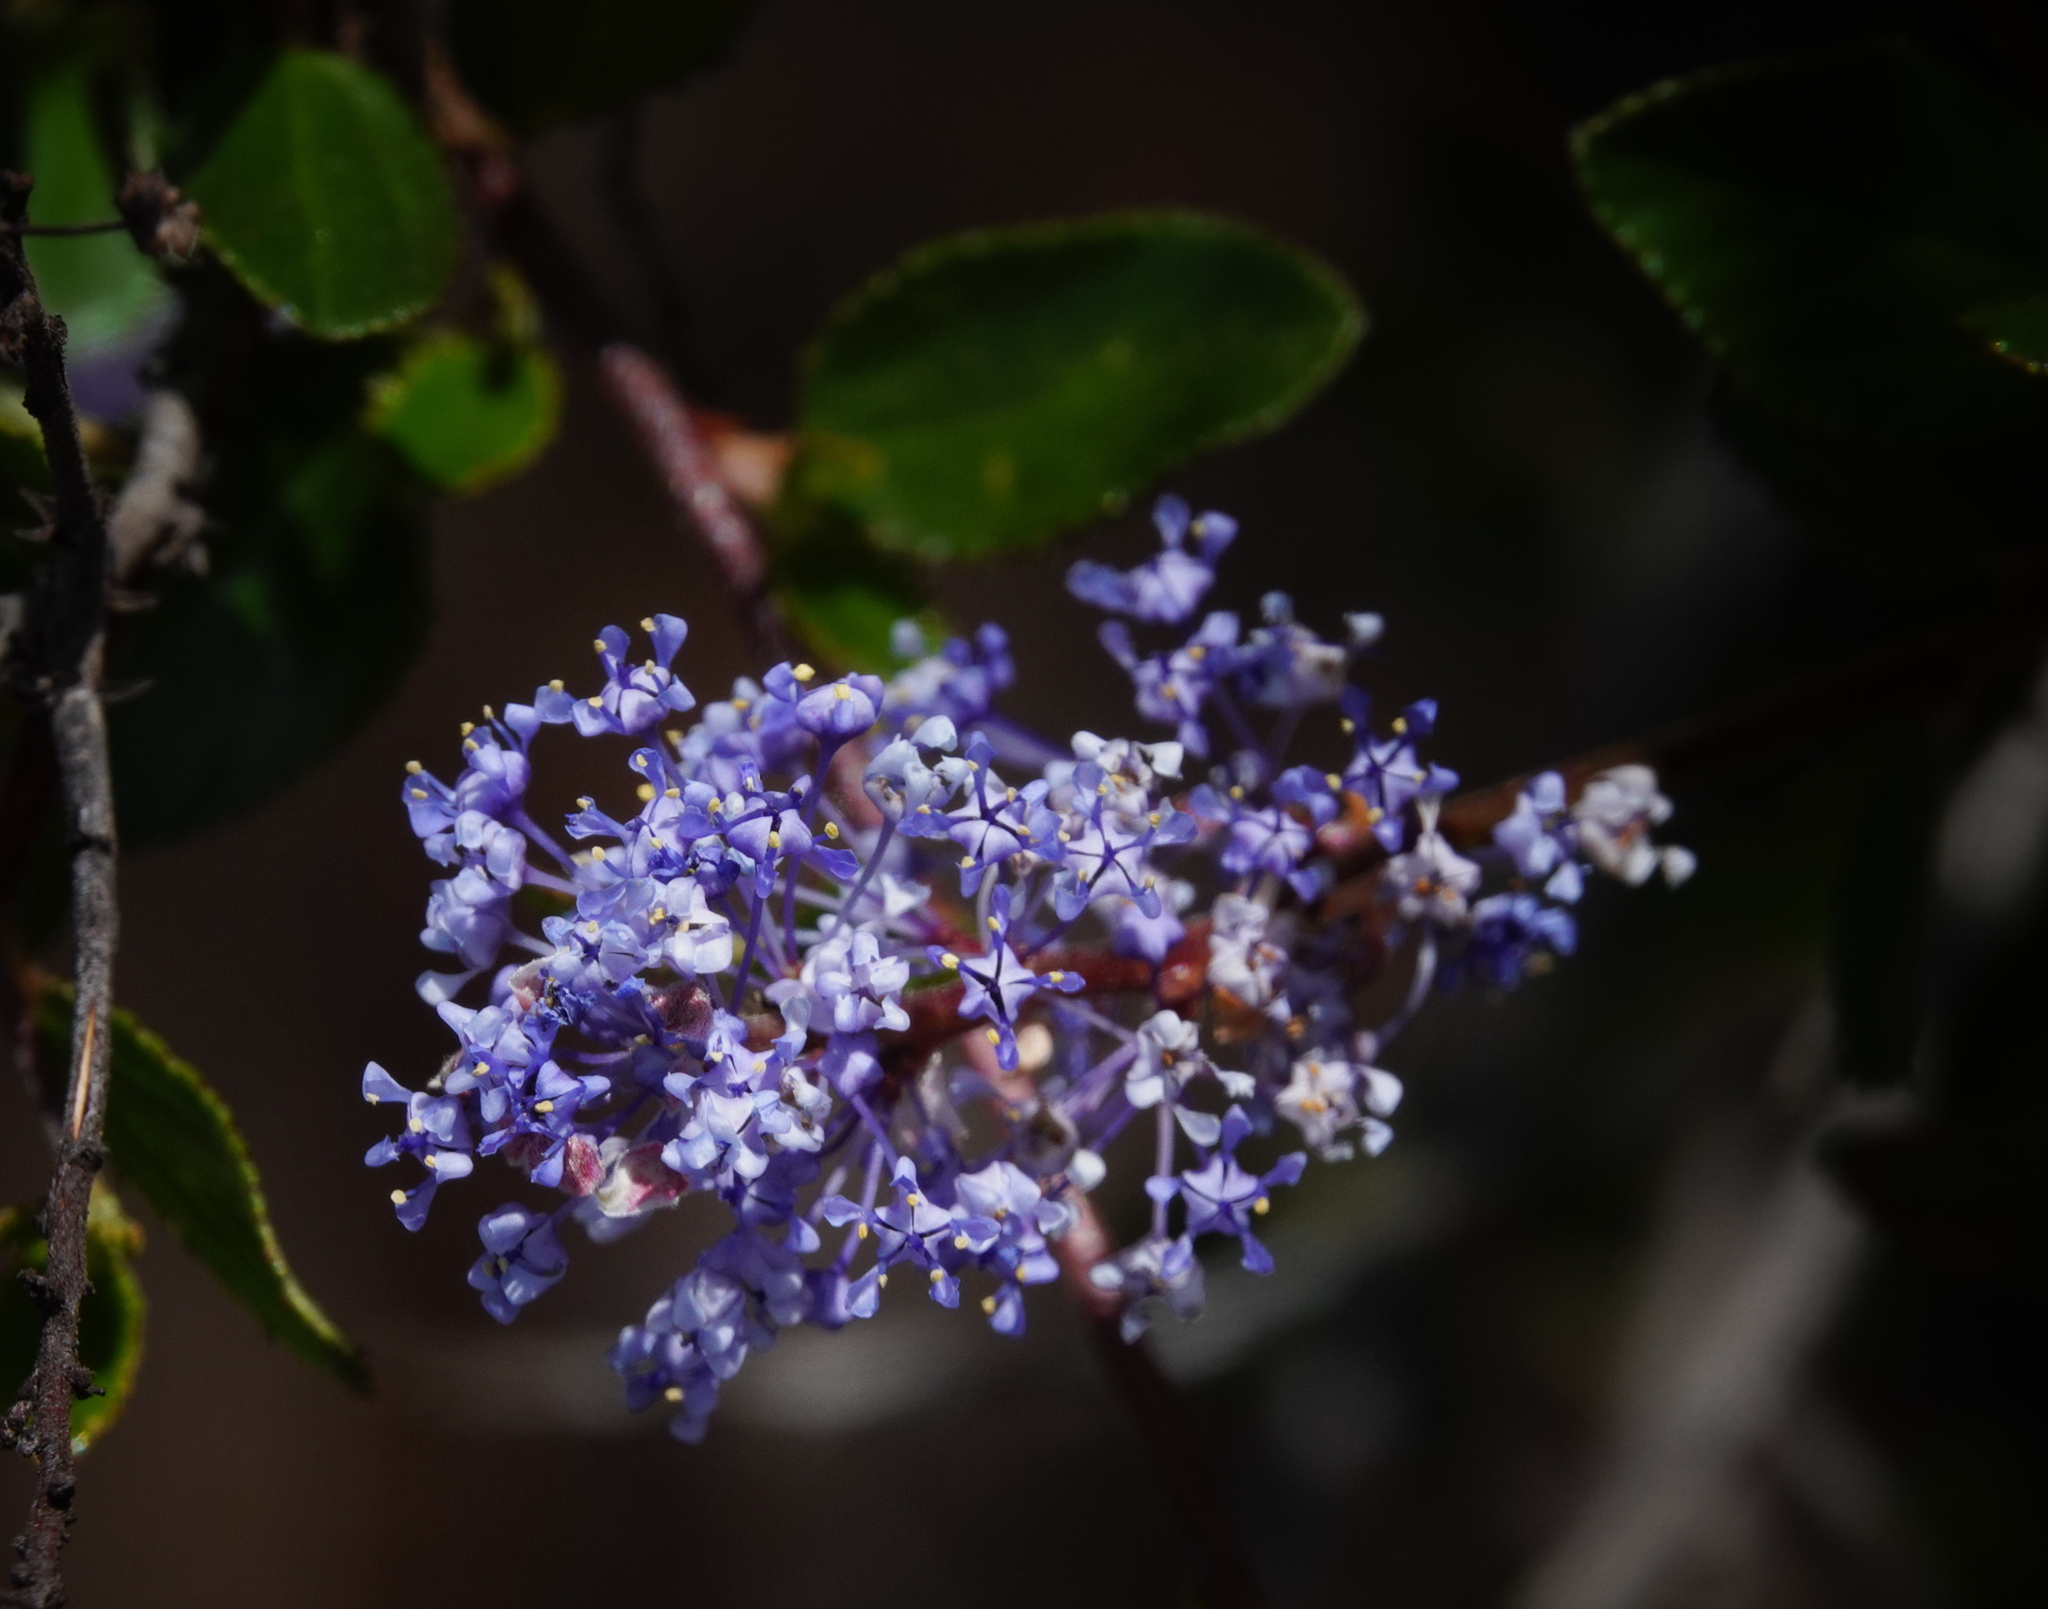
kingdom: Plantae
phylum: Tracheophyta
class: Magnoliopsida
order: Rosales
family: Rhamnaceae
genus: Ceanothus
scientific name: Ceanothus tomentosus
